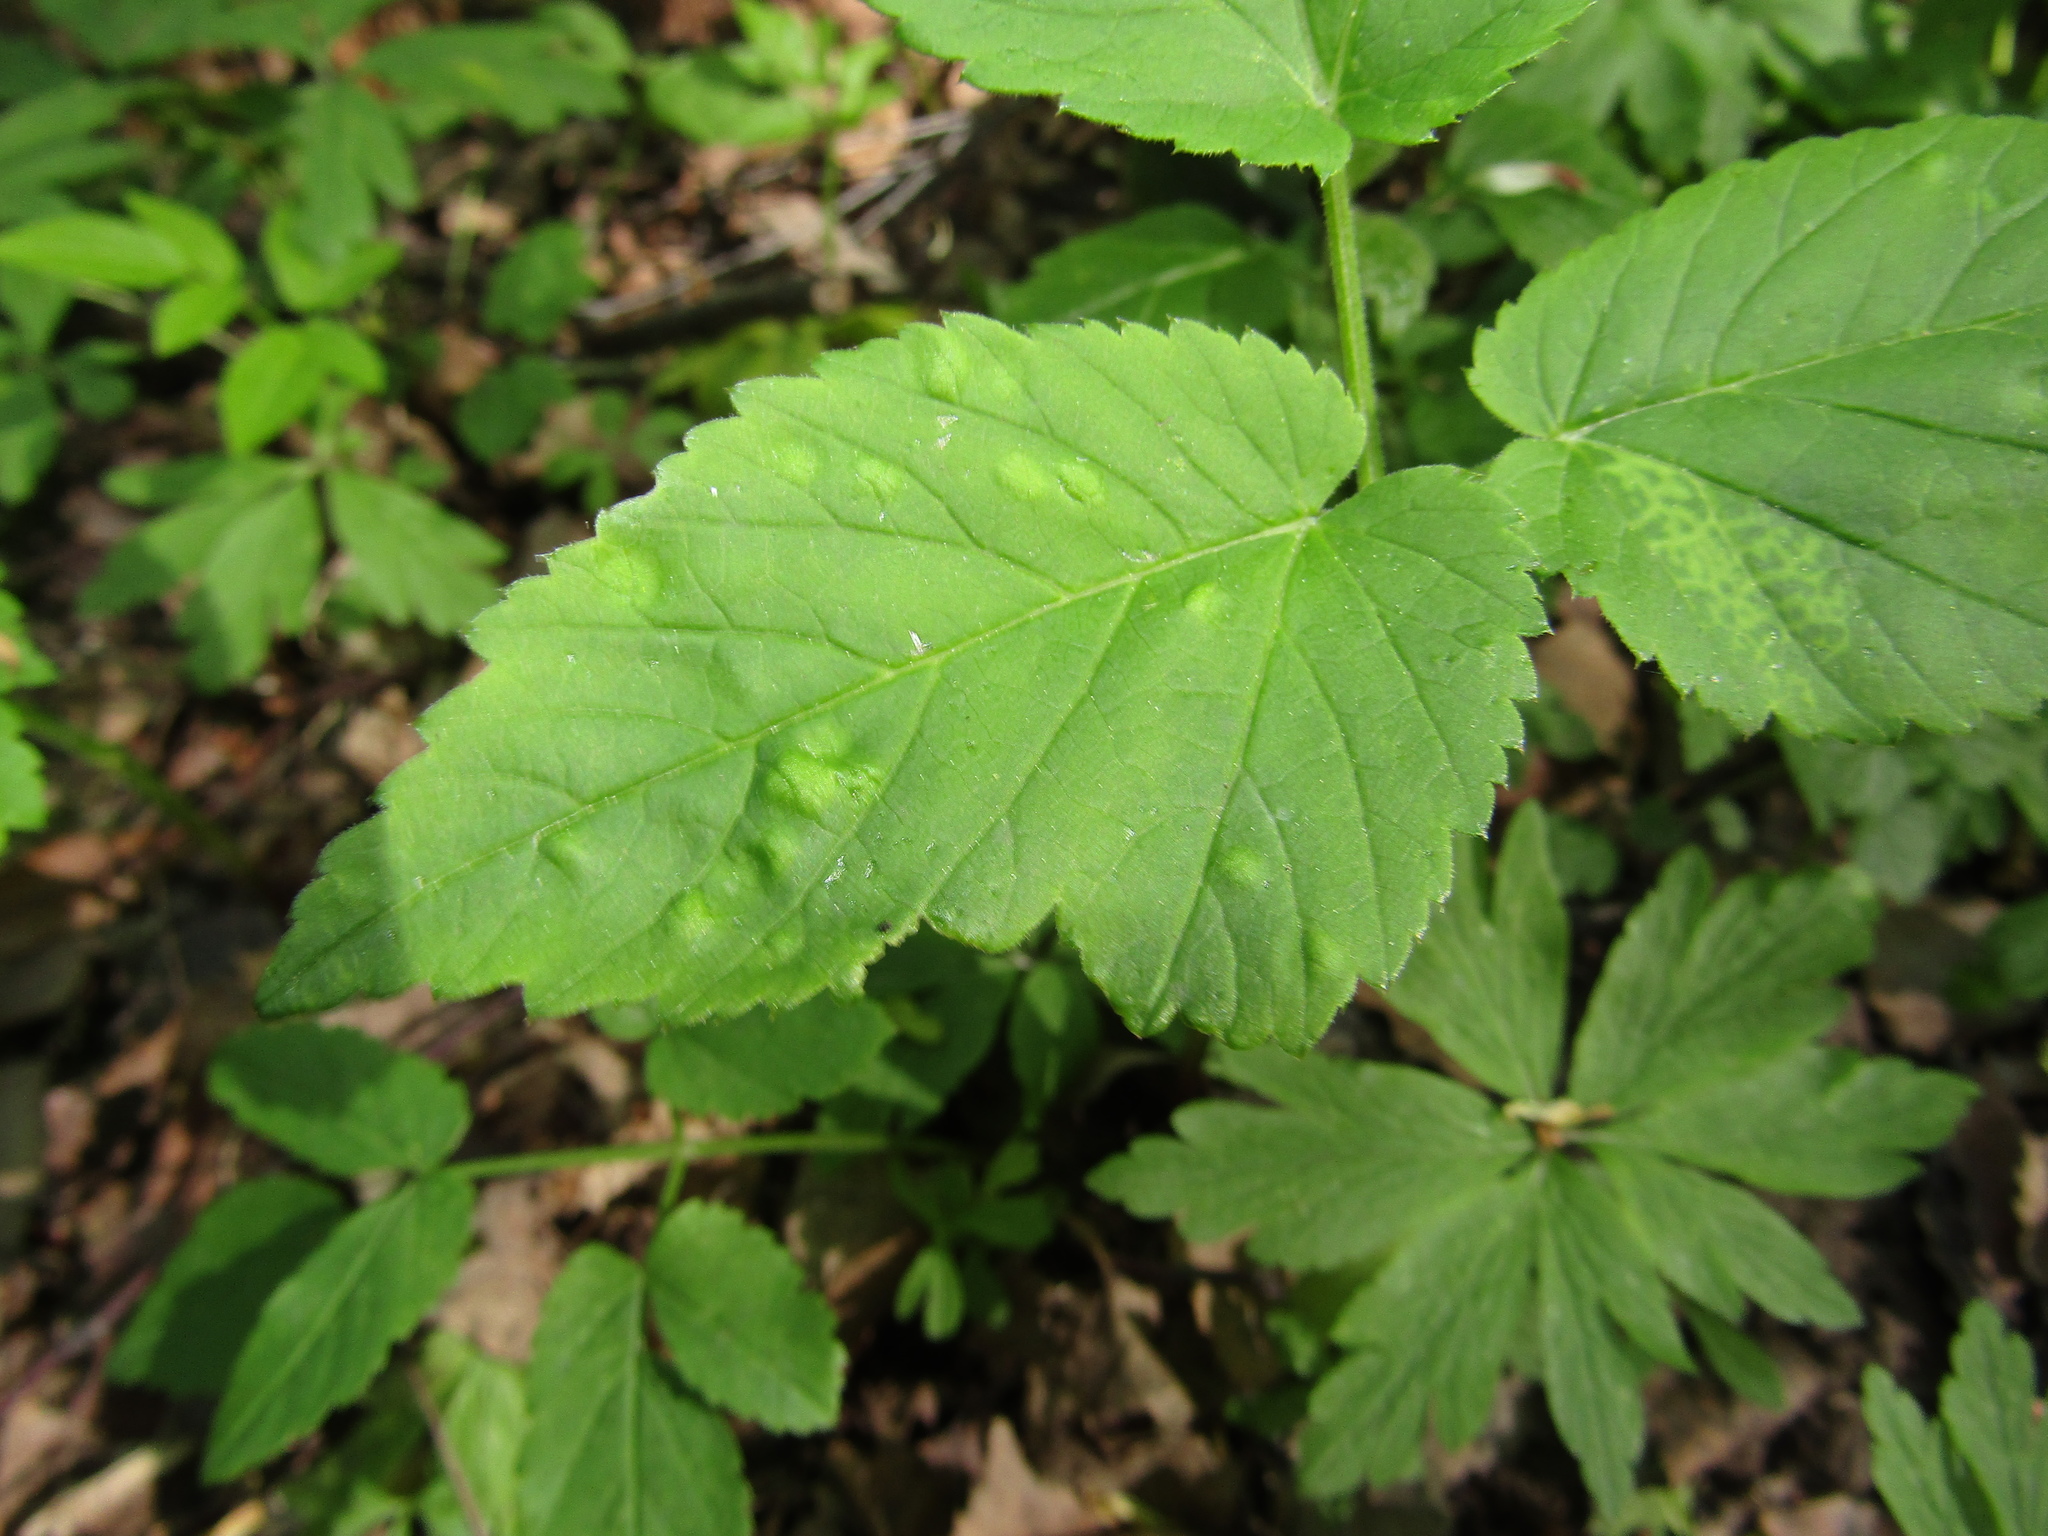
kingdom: Plantae
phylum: Tracheophyta
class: Magnoliopsida
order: Apiales
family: Apiaceae
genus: Aegopodium
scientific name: Aegopodium podagraria
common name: Ground-elder
